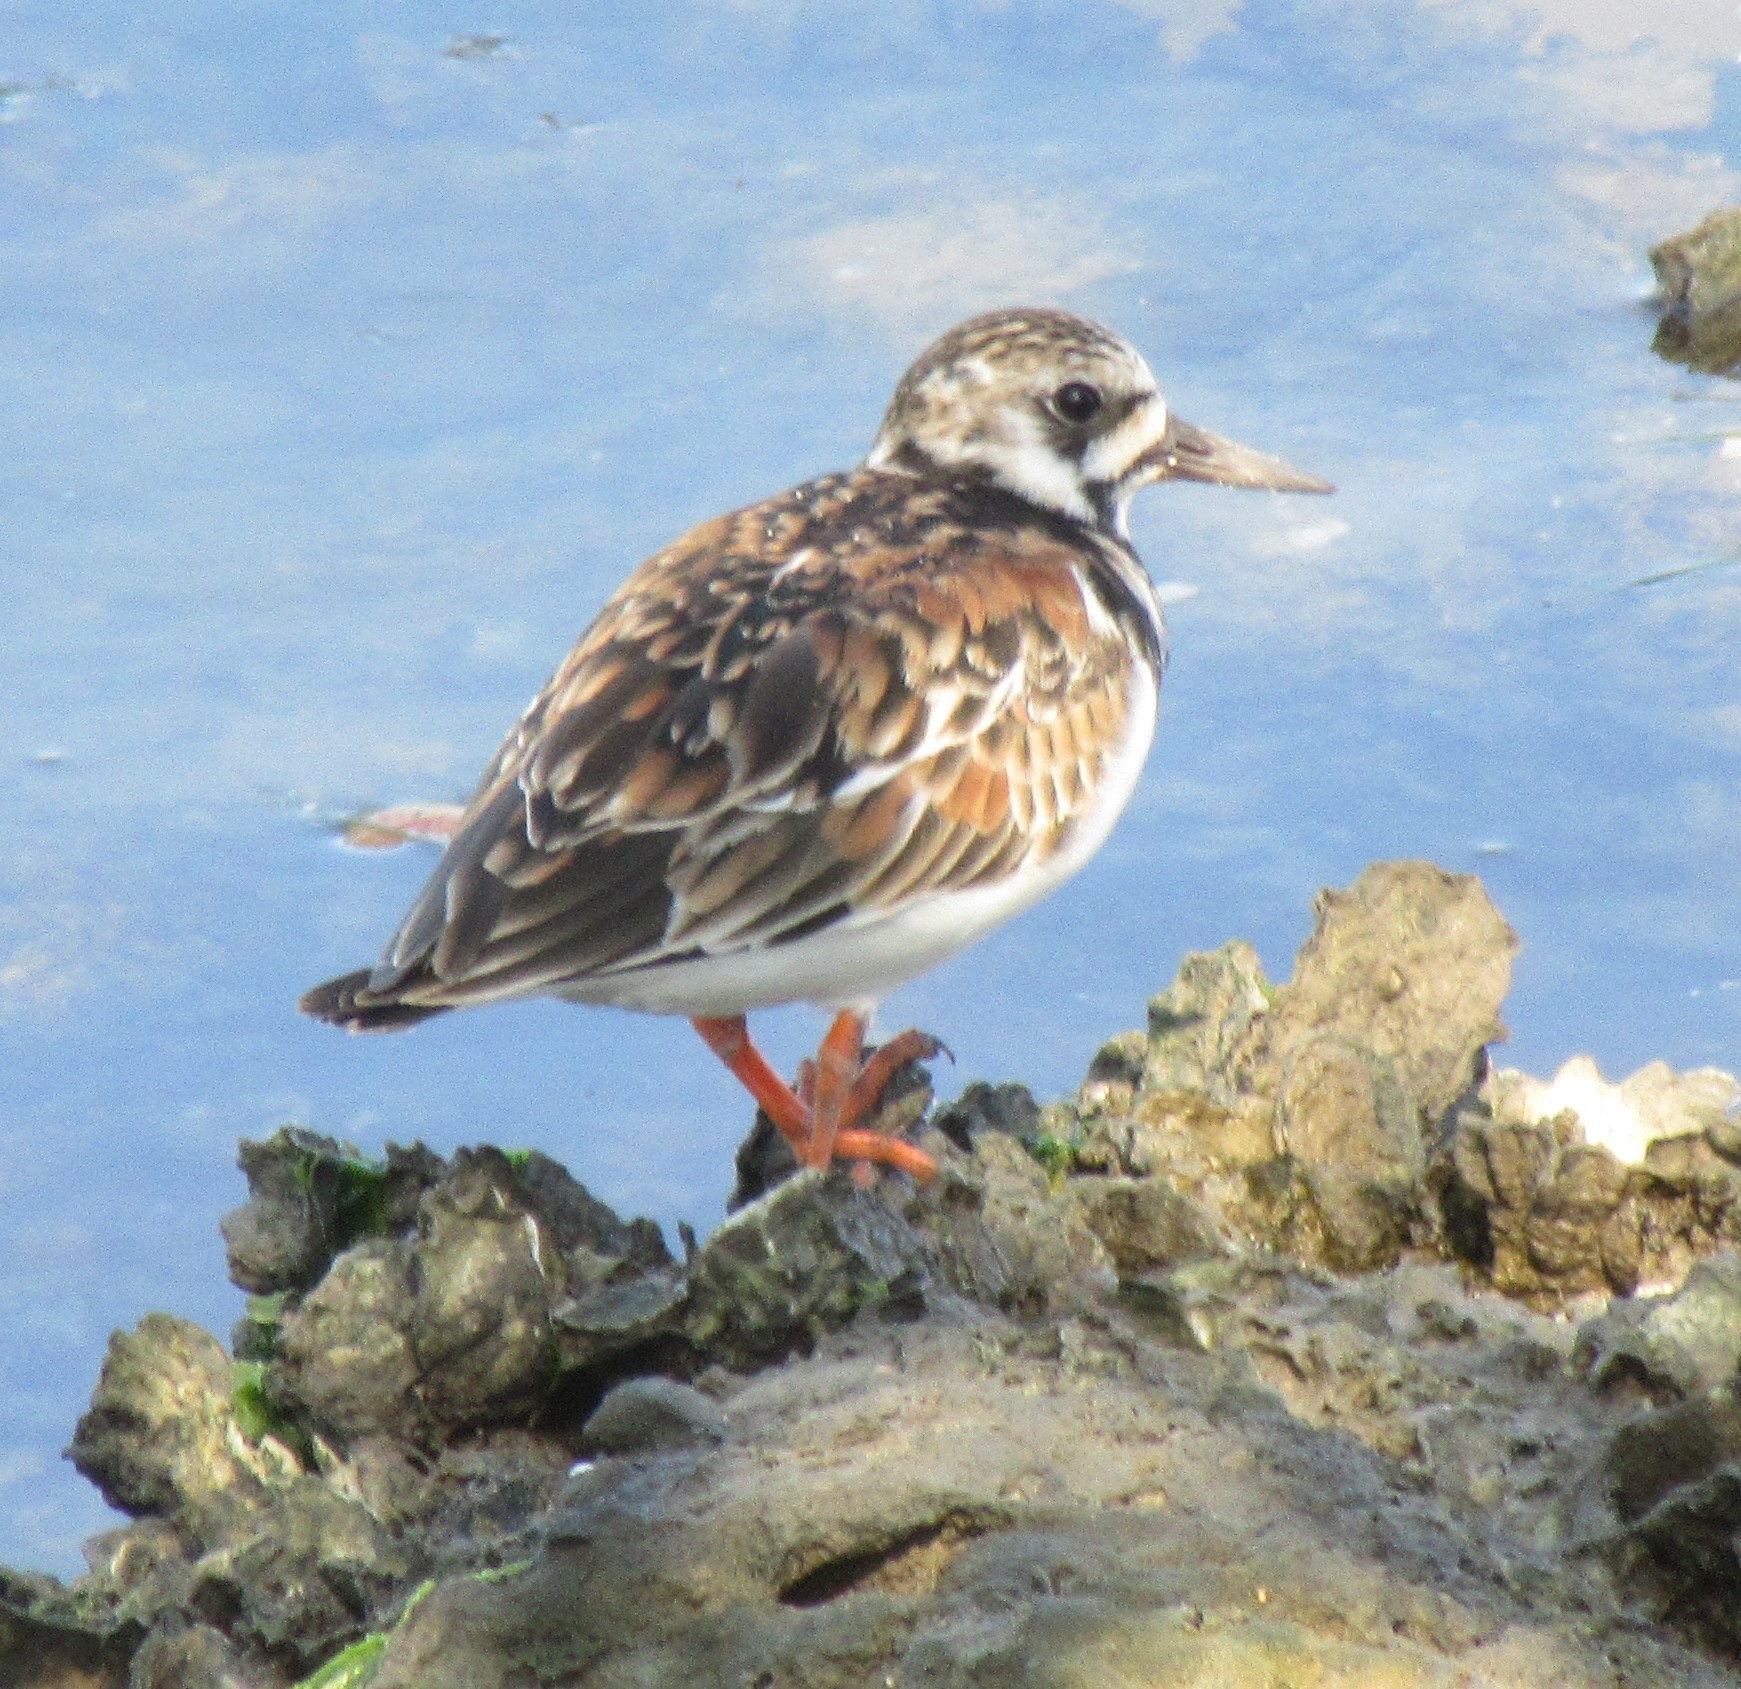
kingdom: Animalia
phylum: Chordata
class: Aves
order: Charadriiformes
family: Scolopacidae
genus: Arenaria
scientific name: Arenaria interpres
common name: Ruddy turnstone
